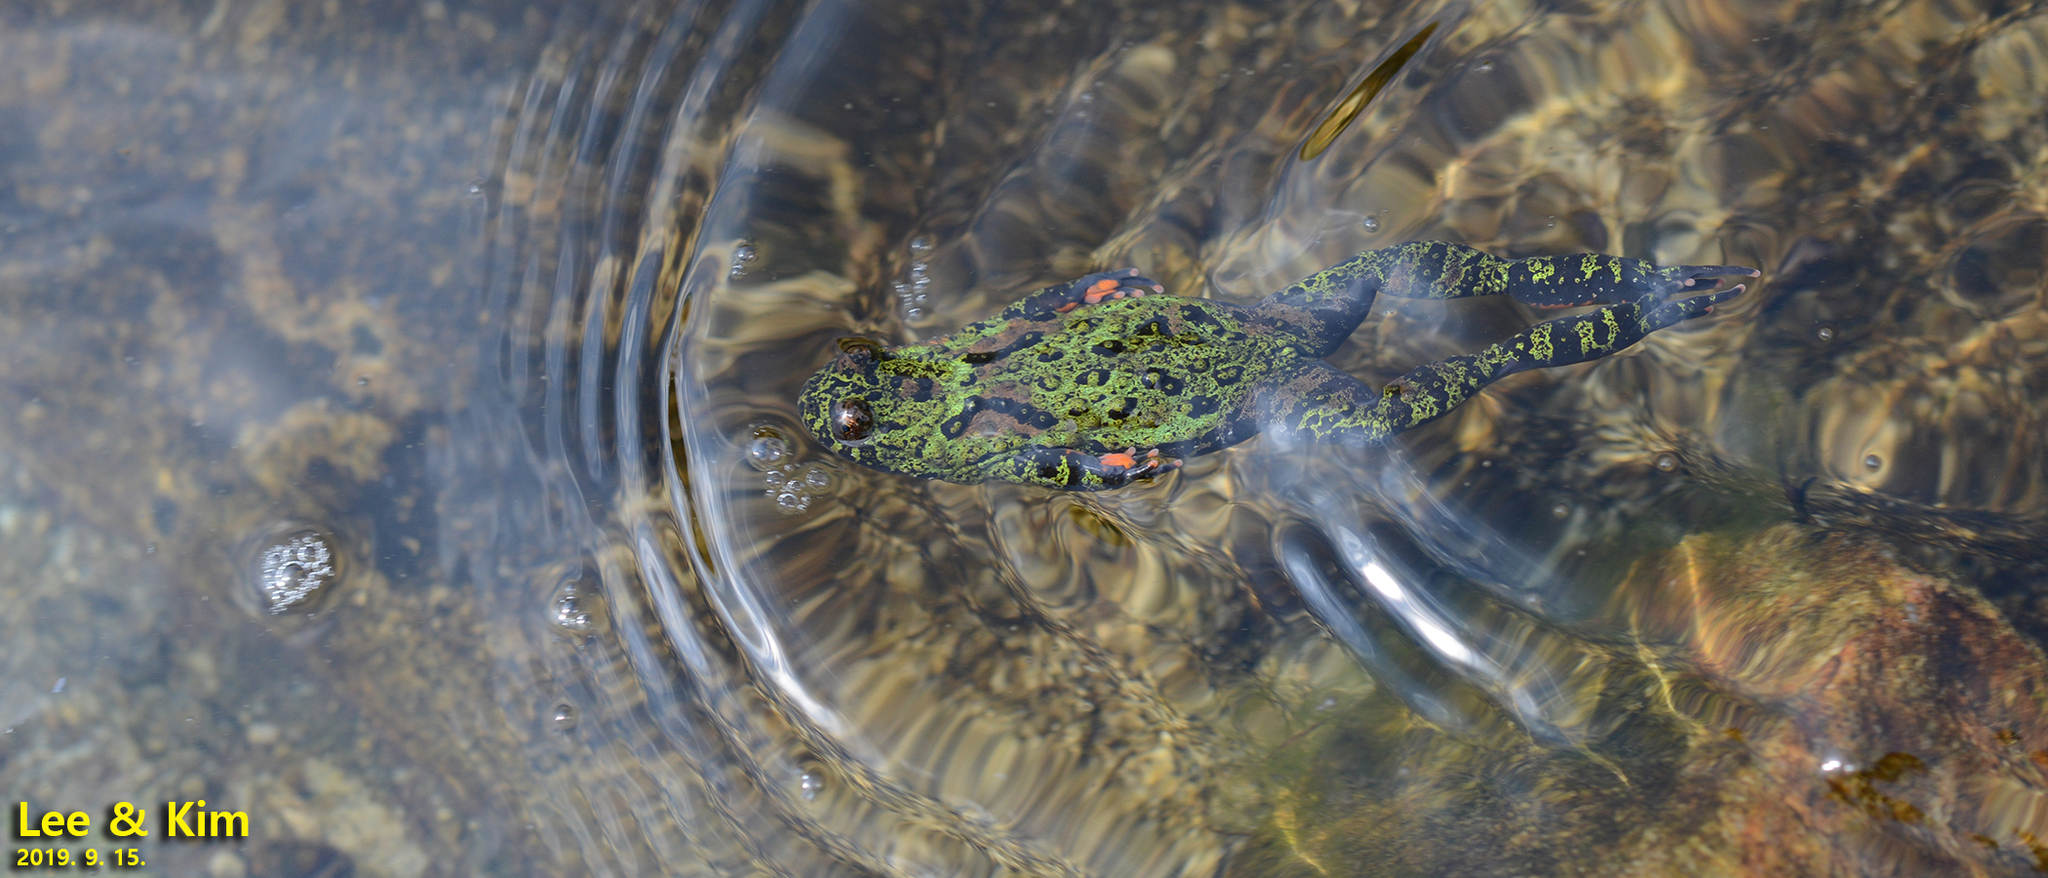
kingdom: Animalia
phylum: Chordata
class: Amphibia
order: Anura
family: Bombinatoridae
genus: Bombina
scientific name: Bombina orientalis
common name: Oriental firebelly toad
